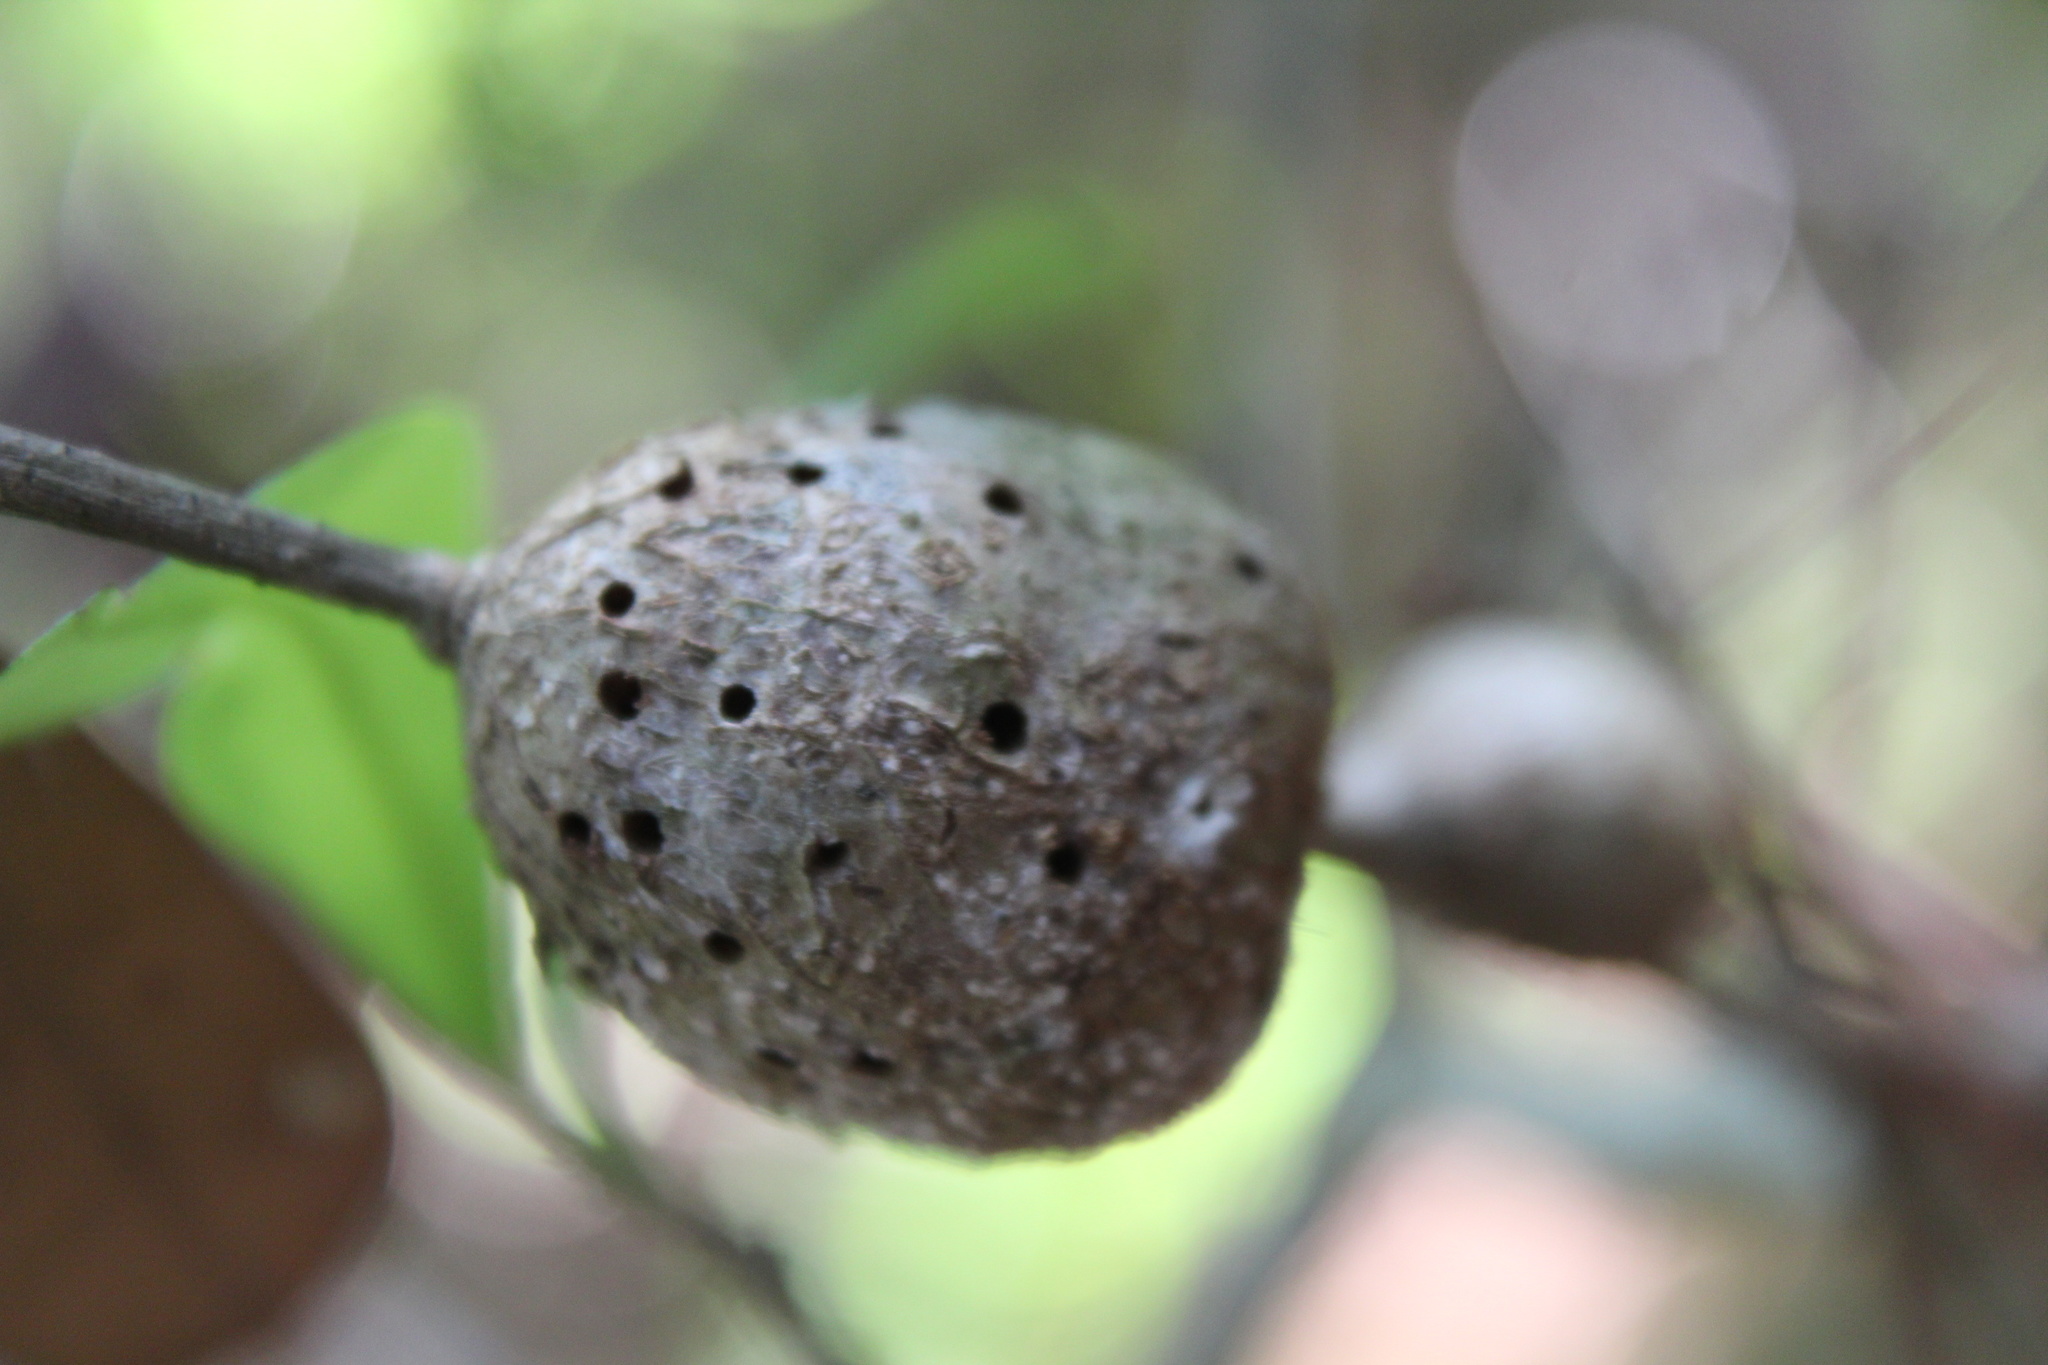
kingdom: Animalia
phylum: Arthropoda
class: Insecta
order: Hymenoptera
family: Cynipidae
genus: Callirhytis
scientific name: Callirhytis
